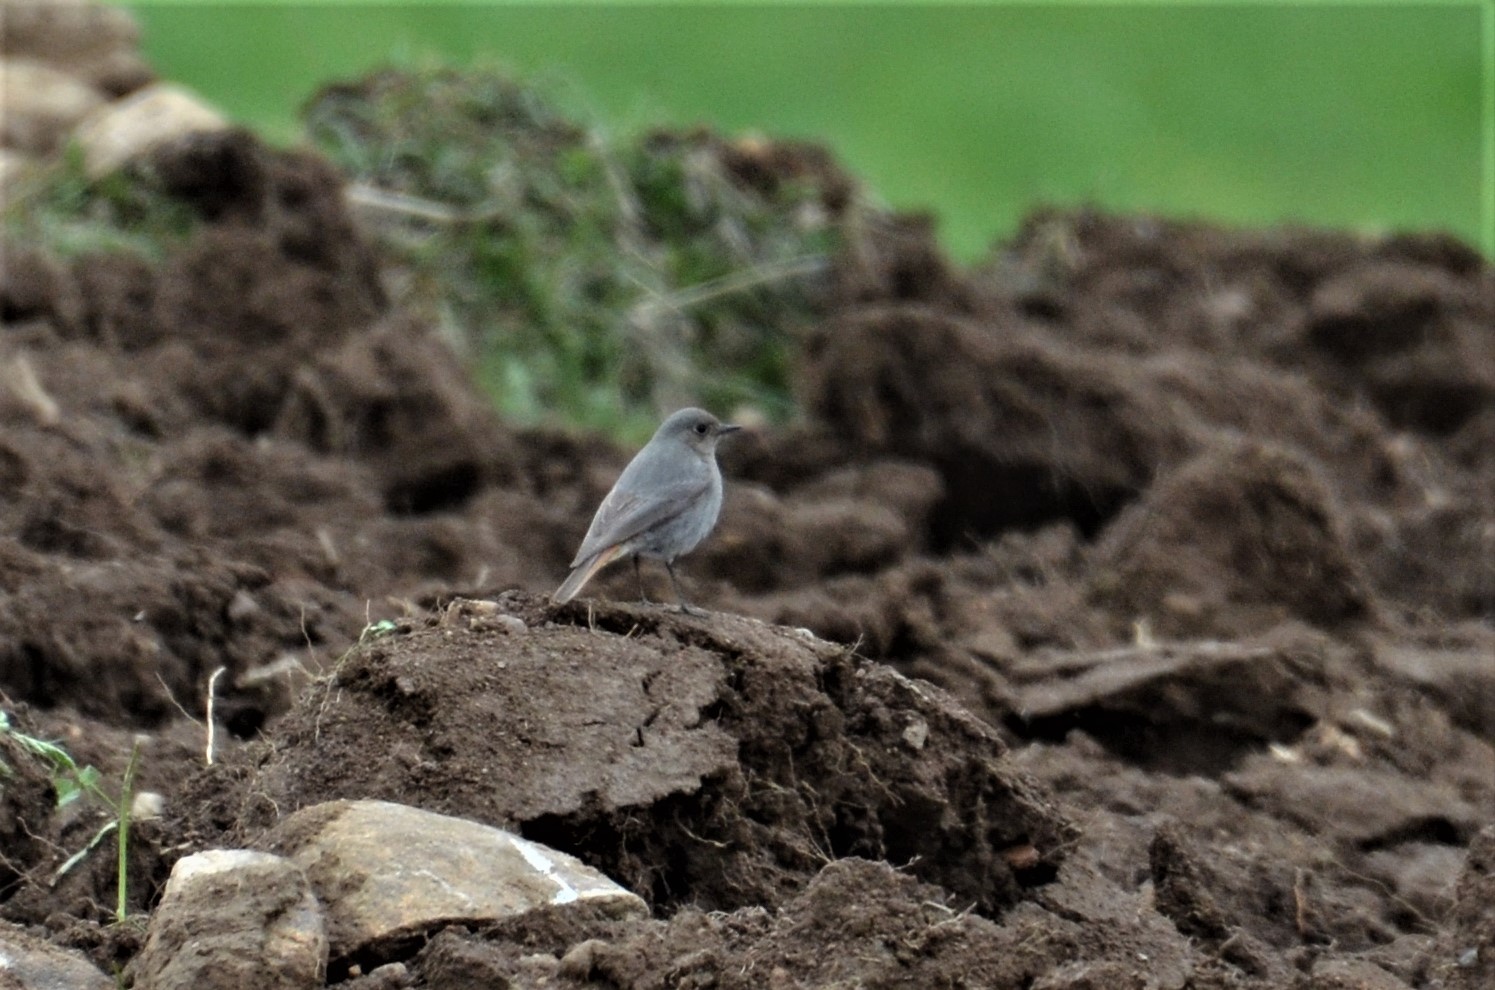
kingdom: Animalia
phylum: Chordata
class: Aves
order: Passeriformes
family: Muscicapidae
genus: Phoenicurus
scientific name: Phoenicurus ochruros
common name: Black redstart
